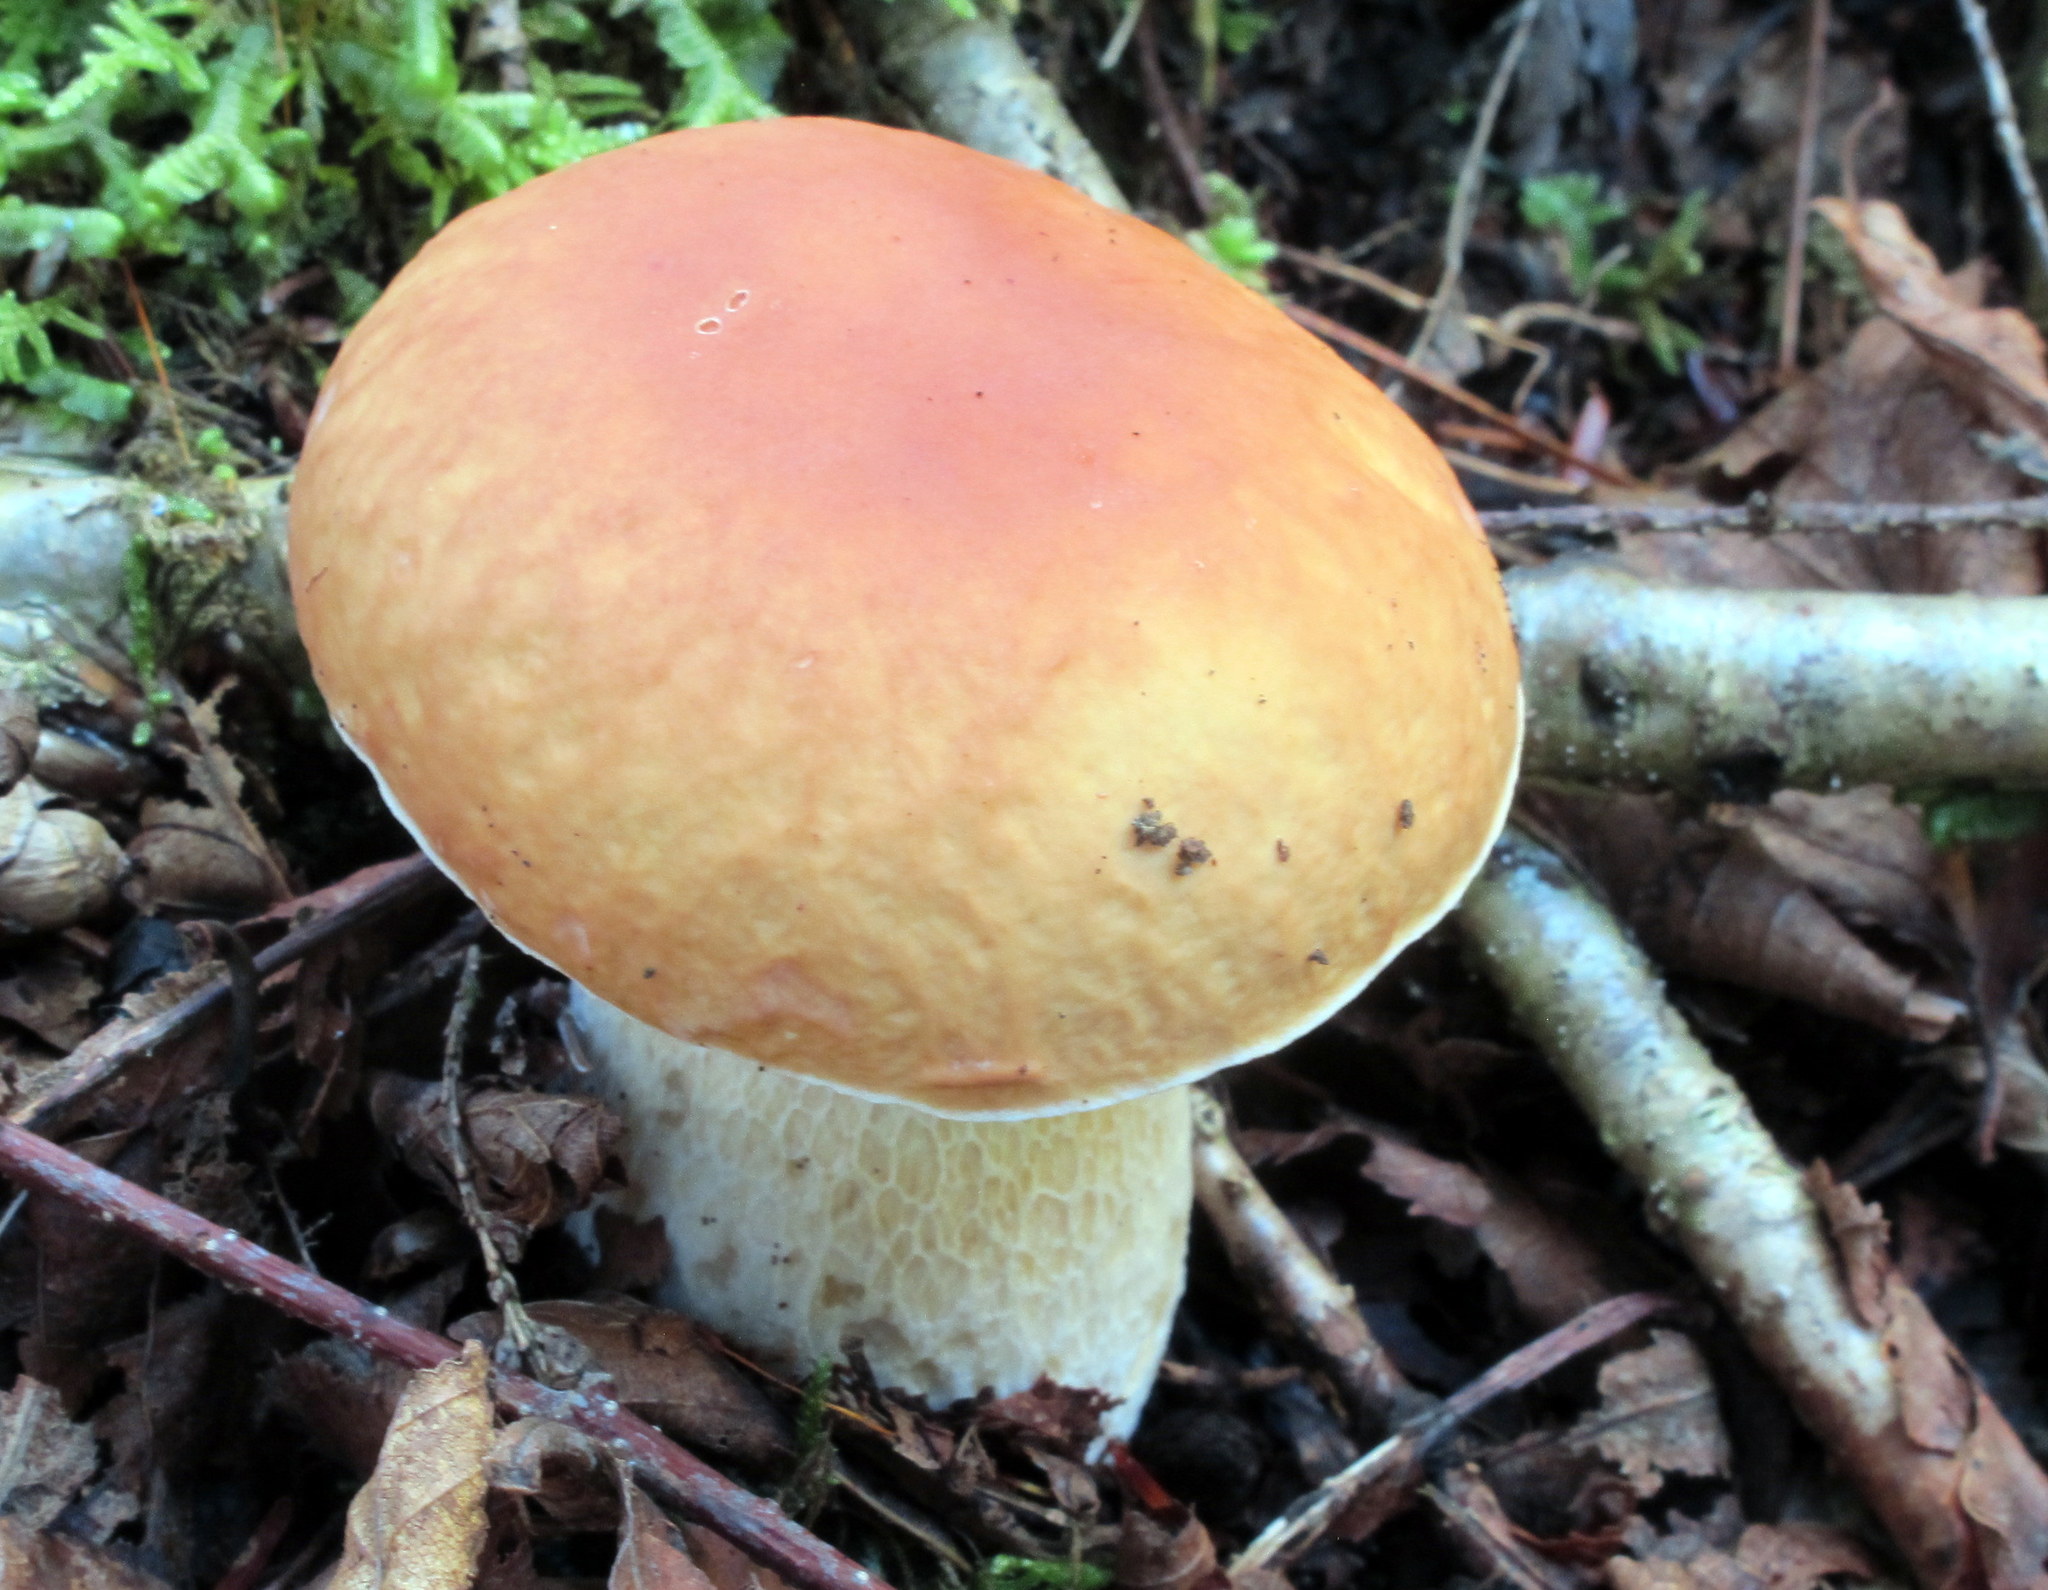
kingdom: Fungi
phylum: Basidiomycota
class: Agaricomycetes
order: Boletales
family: Boletaceae
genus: Boletus
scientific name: Boletus edulis
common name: Cep
